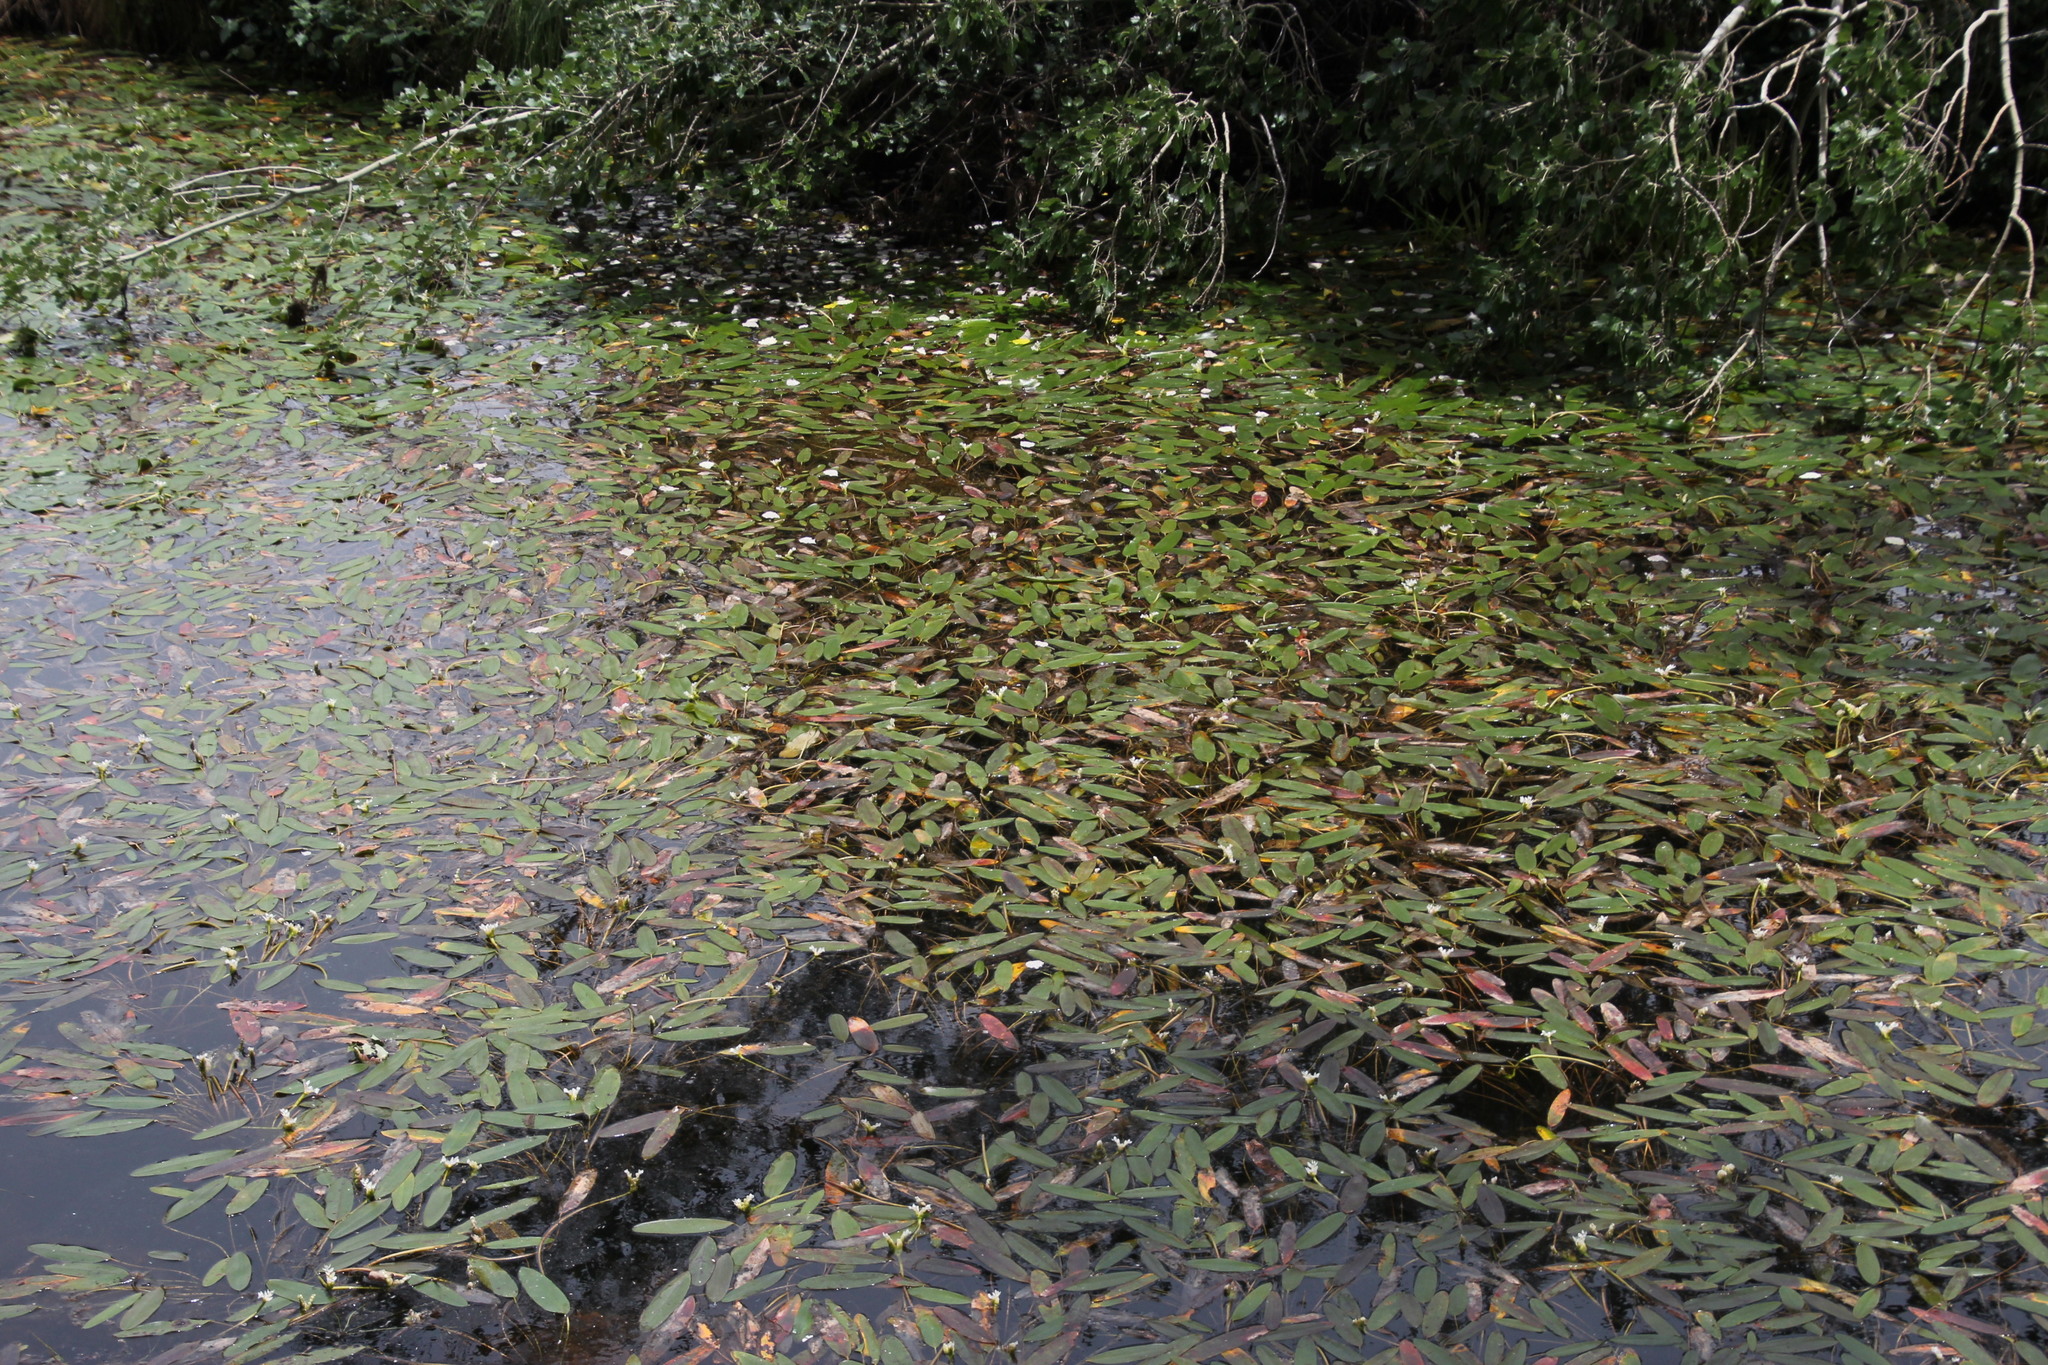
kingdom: Plantae
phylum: Tracheophyta
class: Liliopsida
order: Alismatales
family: Aponogetonaceae
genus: Aponogeton
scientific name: Aponogeton distachyos
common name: Cape-pondweed
